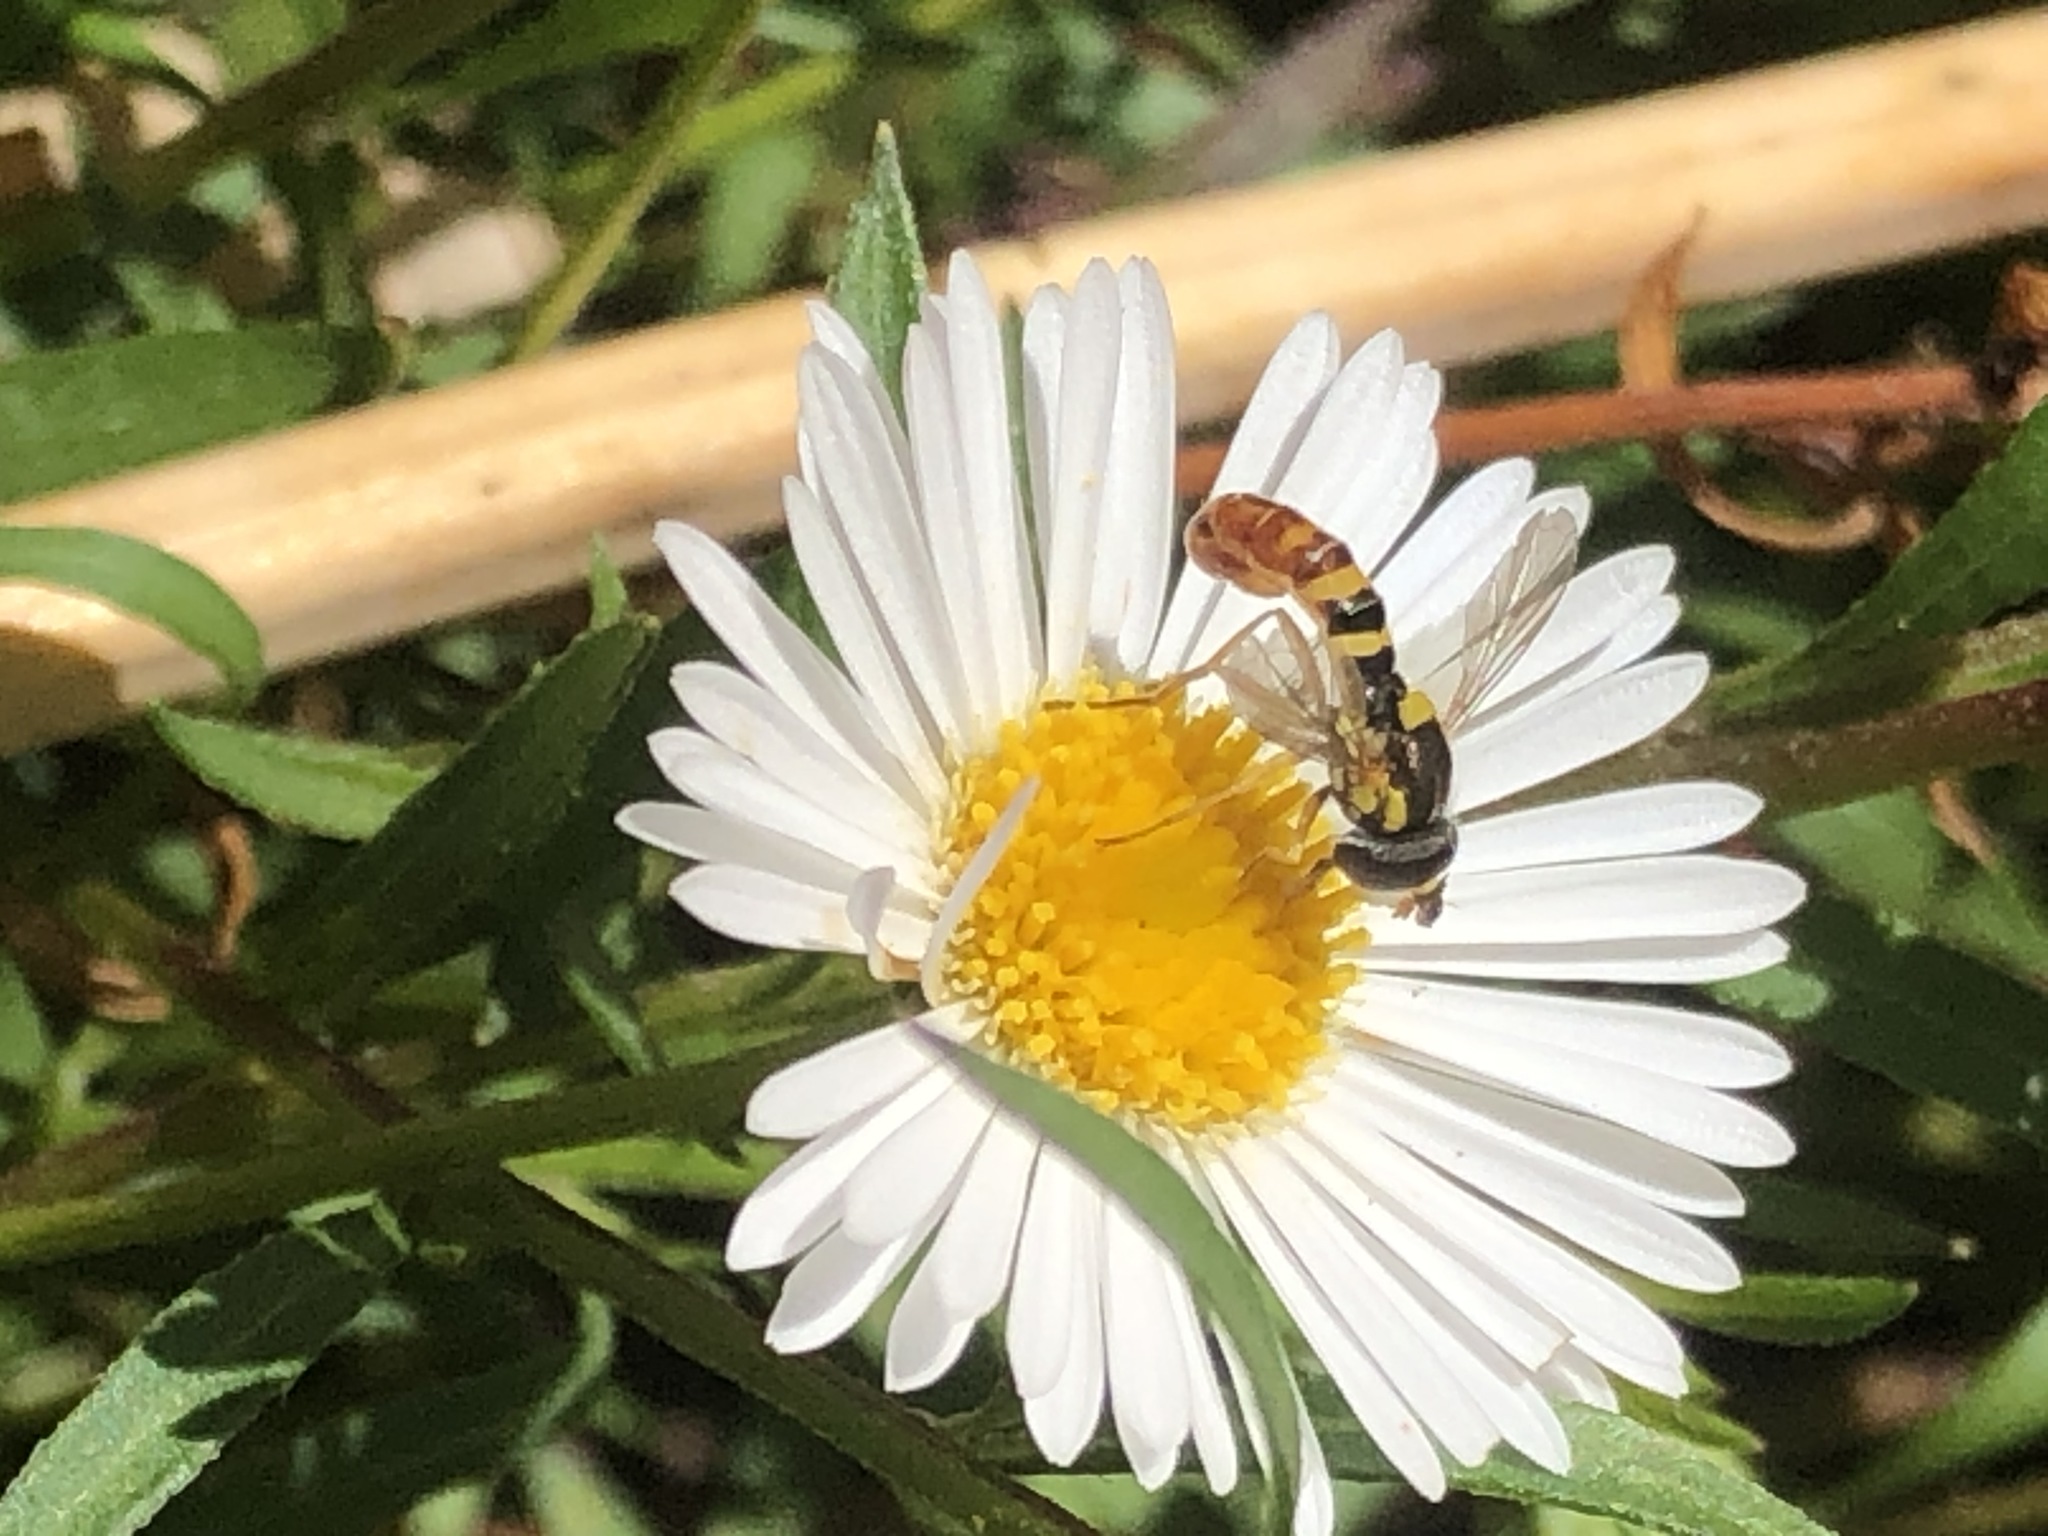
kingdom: Animalia
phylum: Arthropoda
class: Insecta
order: Diptera
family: Syrphidae
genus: Sphaerophoria
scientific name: Sphaerophoria sulphuripes
